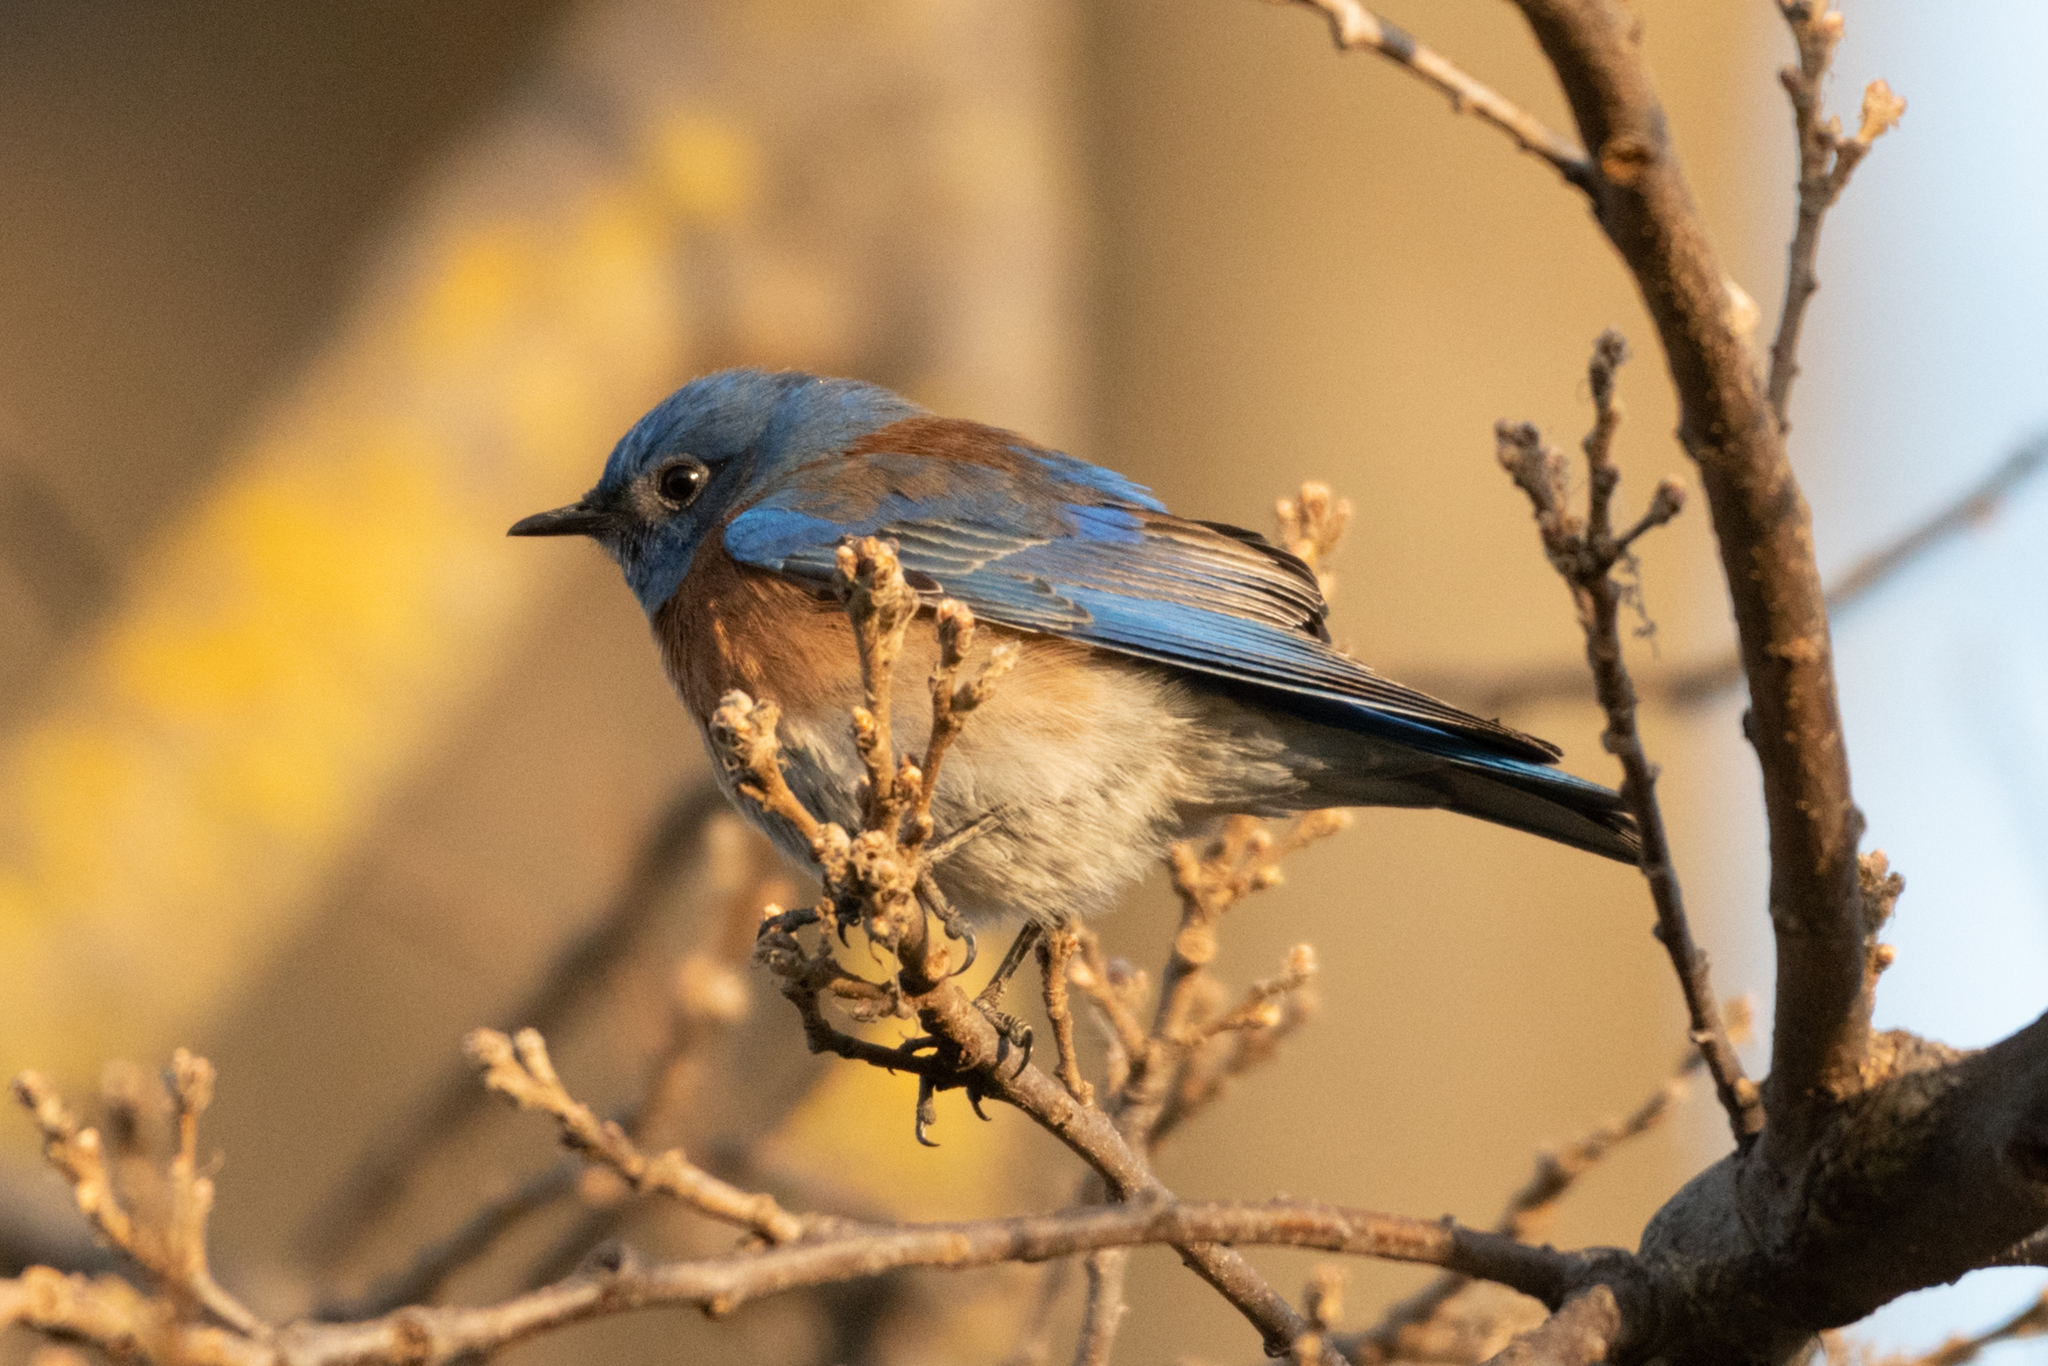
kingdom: Animalia
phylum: Chordata
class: Aves
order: Passeriformes
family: Turdidae
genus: Sialia
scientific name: Sialia mexicana
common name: Western bluebird
